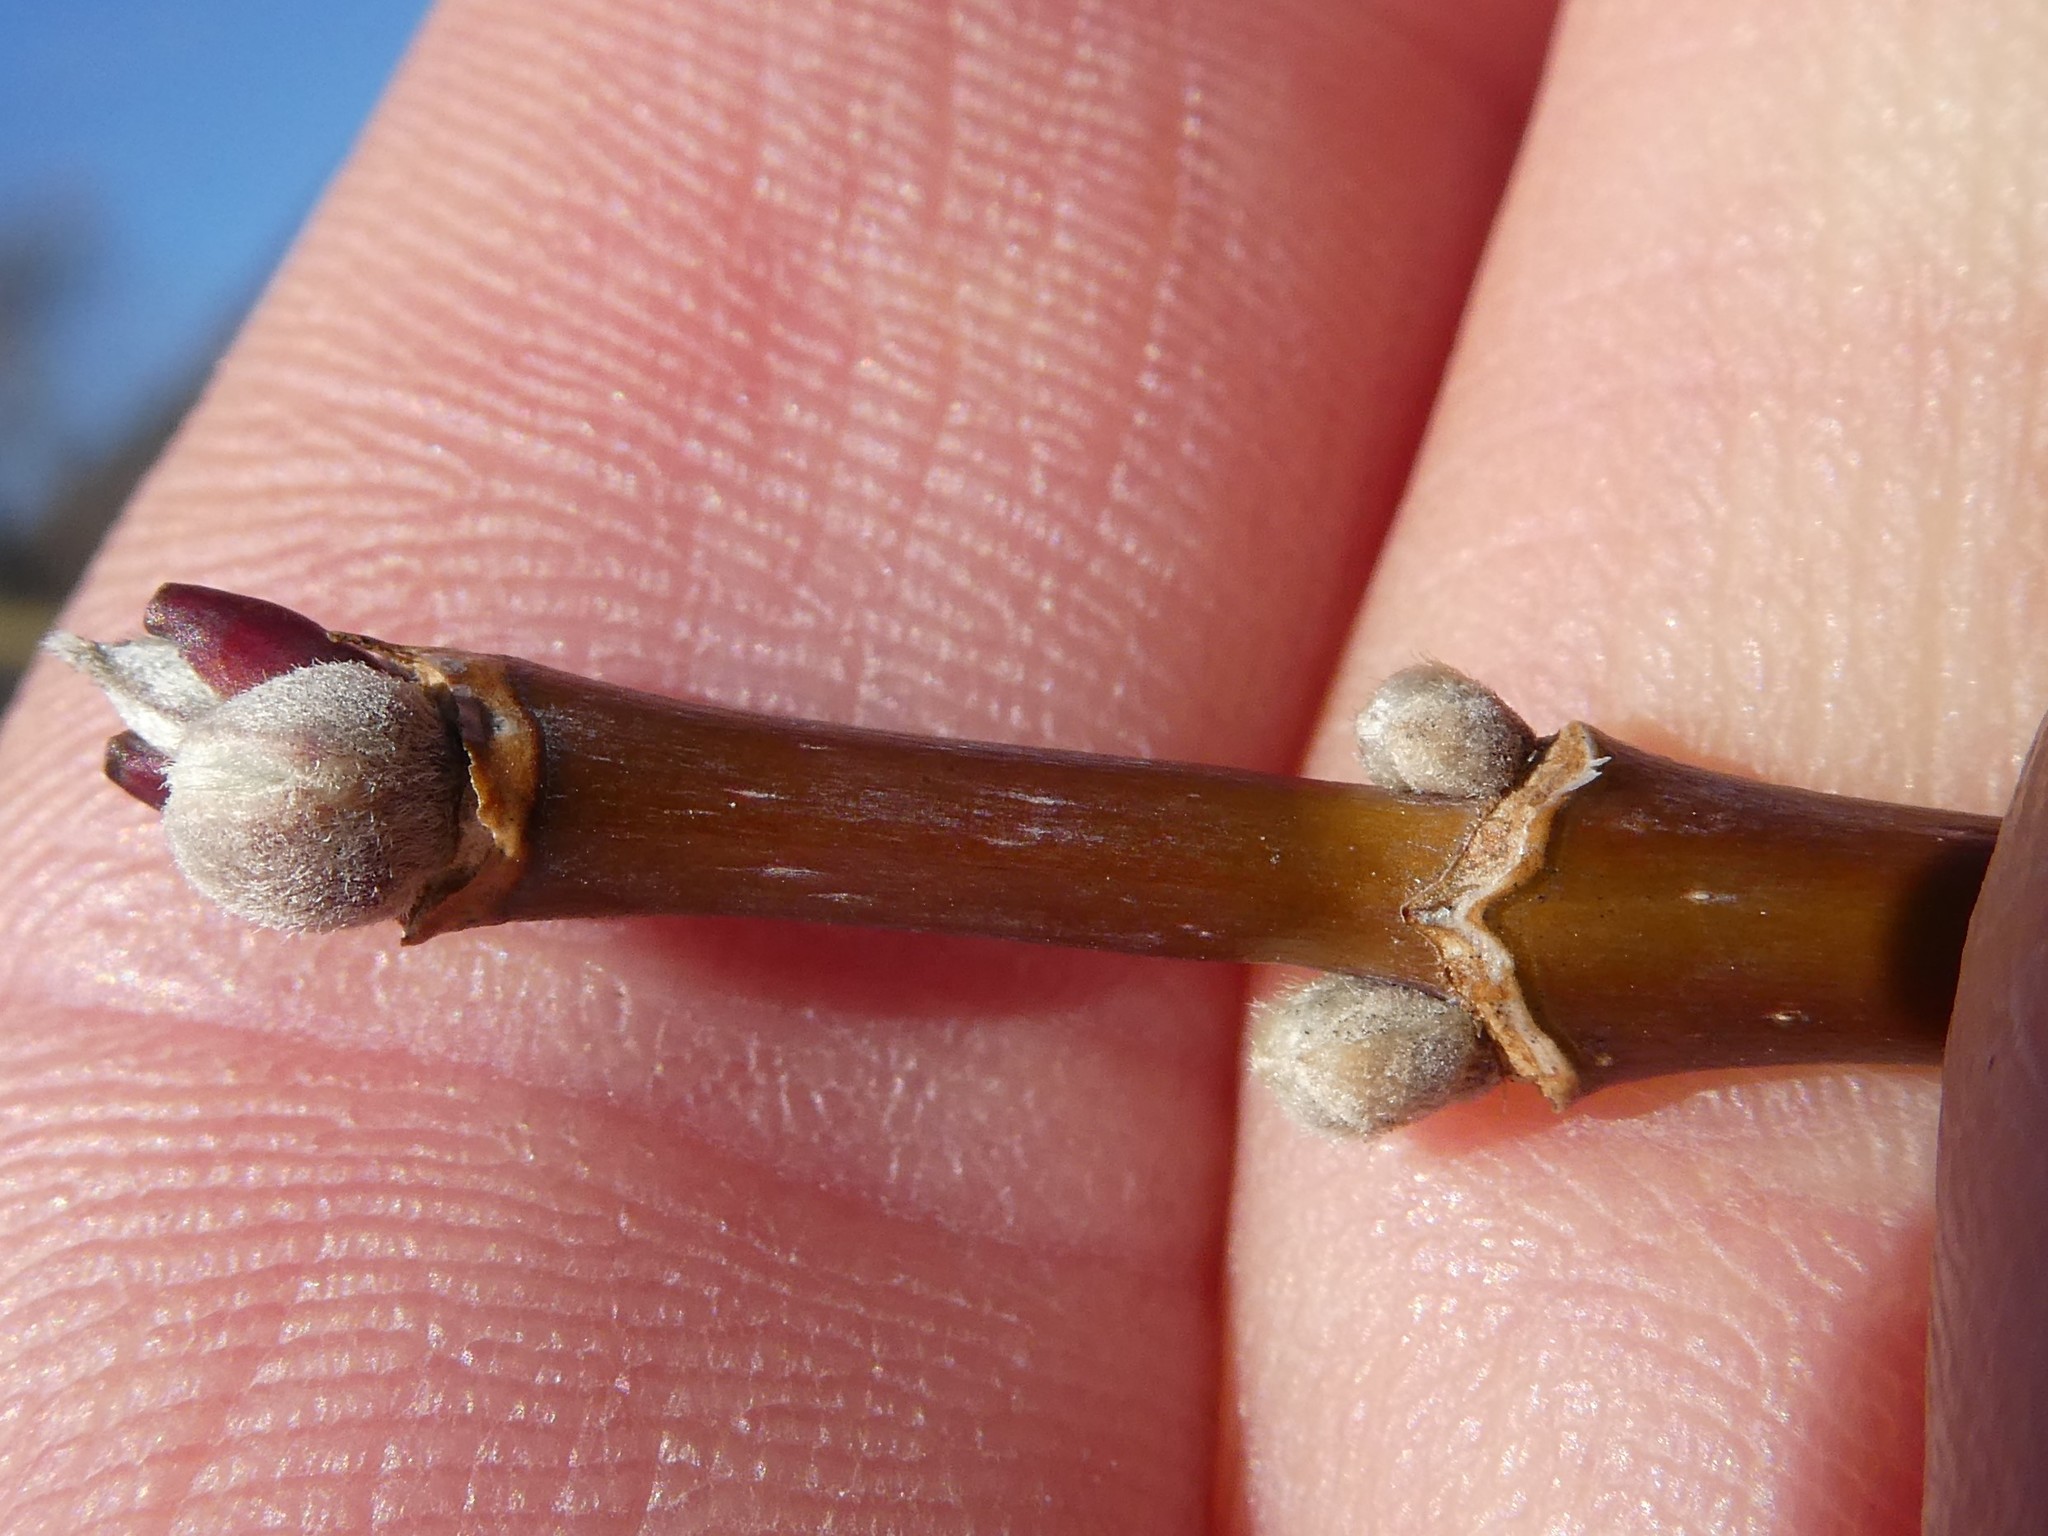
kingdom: Plantae
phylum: Tracheophyta
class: Magnoliopsida
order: Sapindales
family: Sapindaceae
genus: Acer
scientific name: Acer negundo
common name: Ashleaf maple
